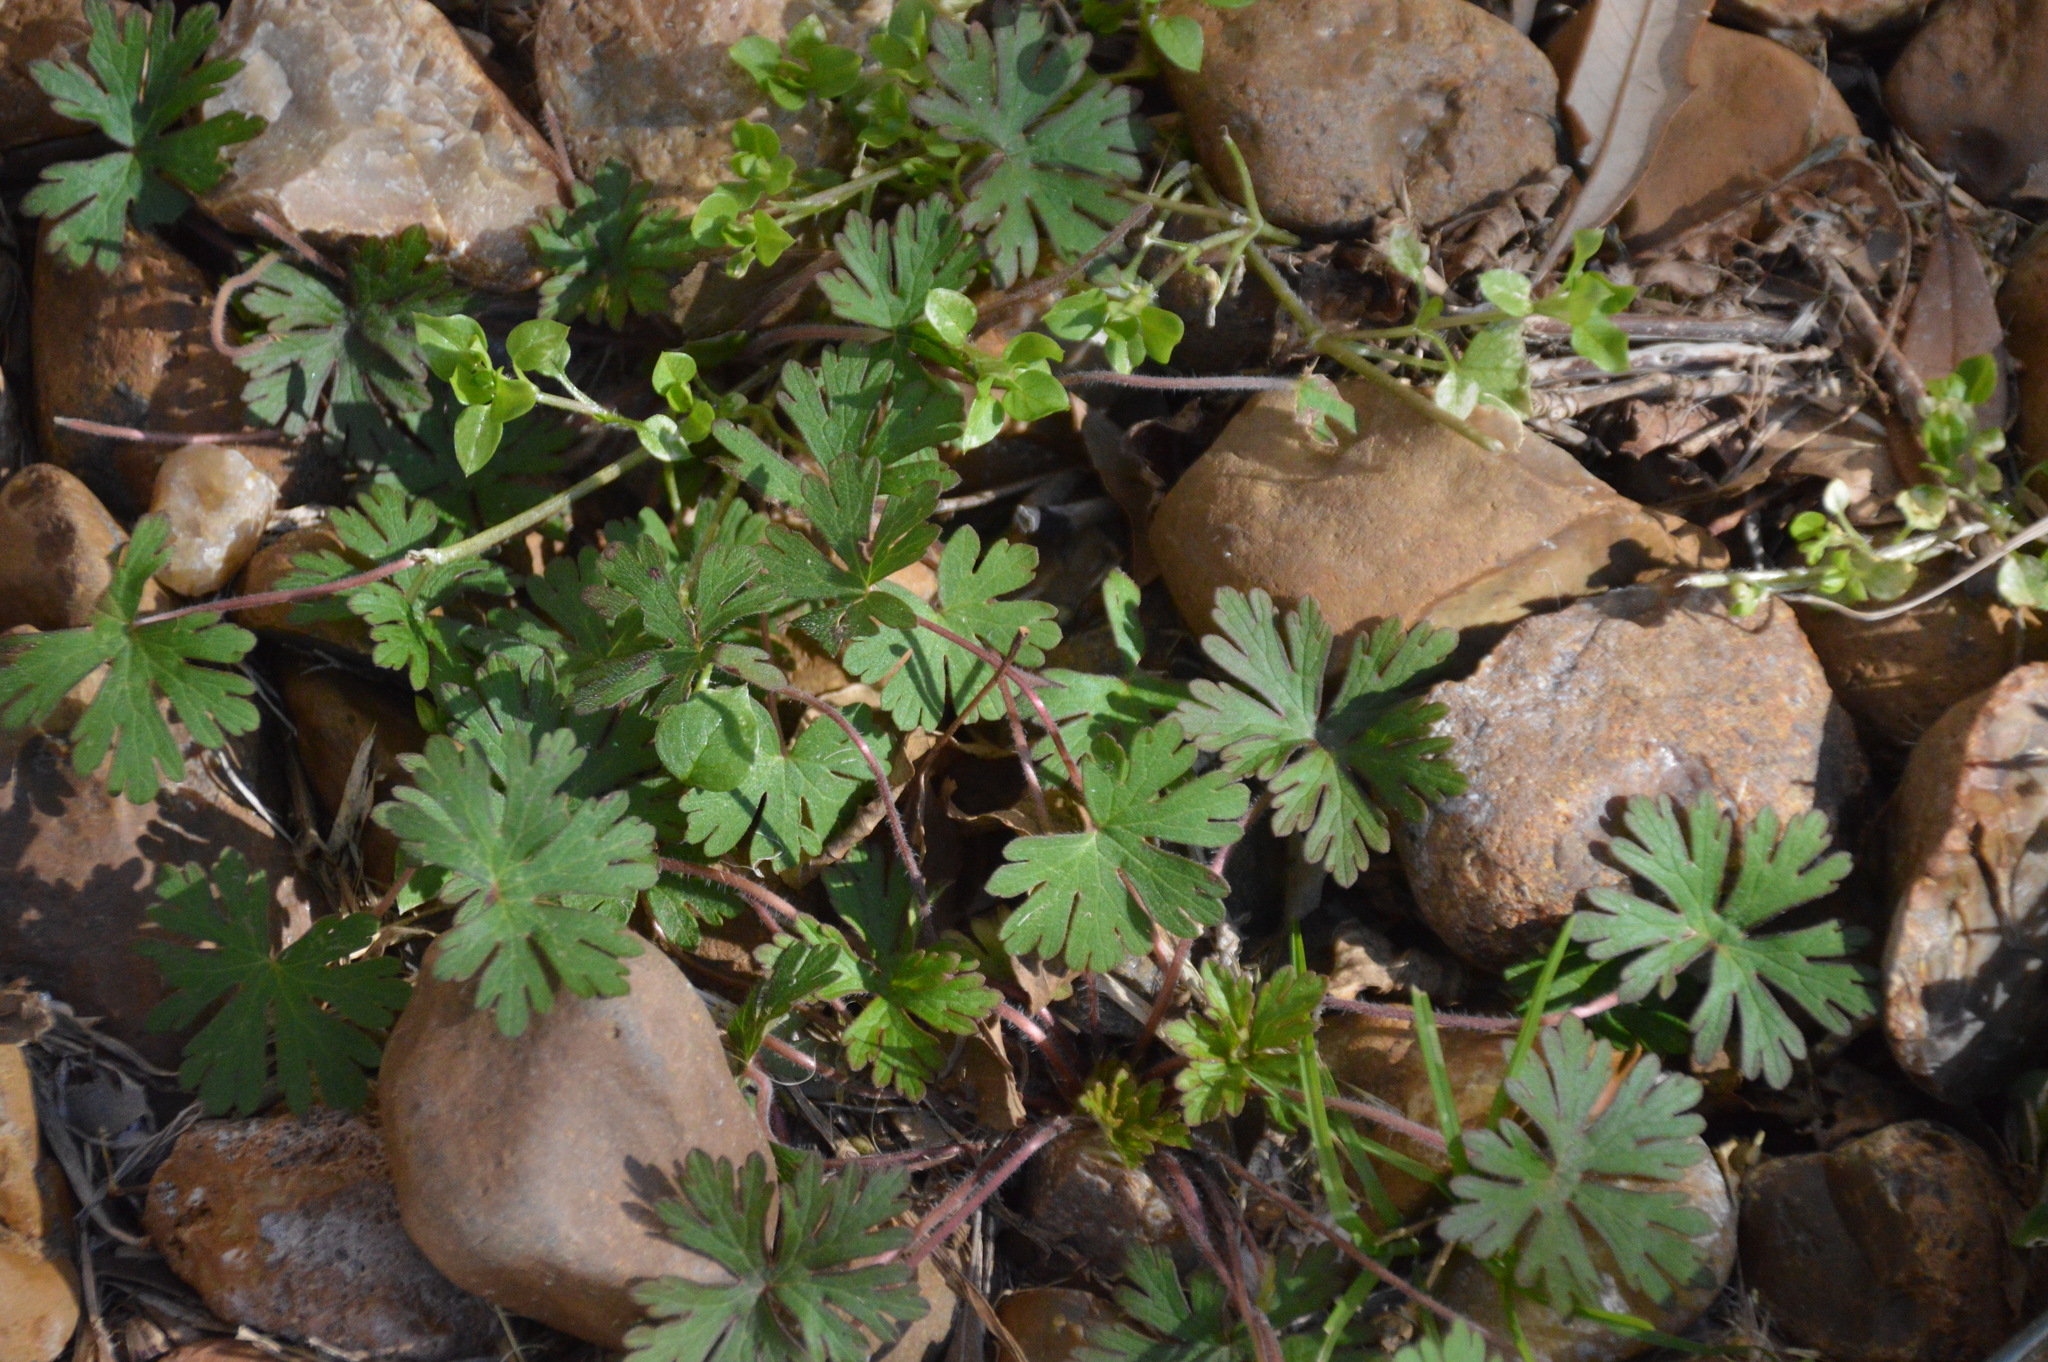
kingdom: Plantae
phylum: Tracheophyta
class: Magnoliopsida
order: Geraniales
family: Geraniaceae
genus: Geranium
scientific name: Geranium carolinianum
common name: Carolina crane's-bill
